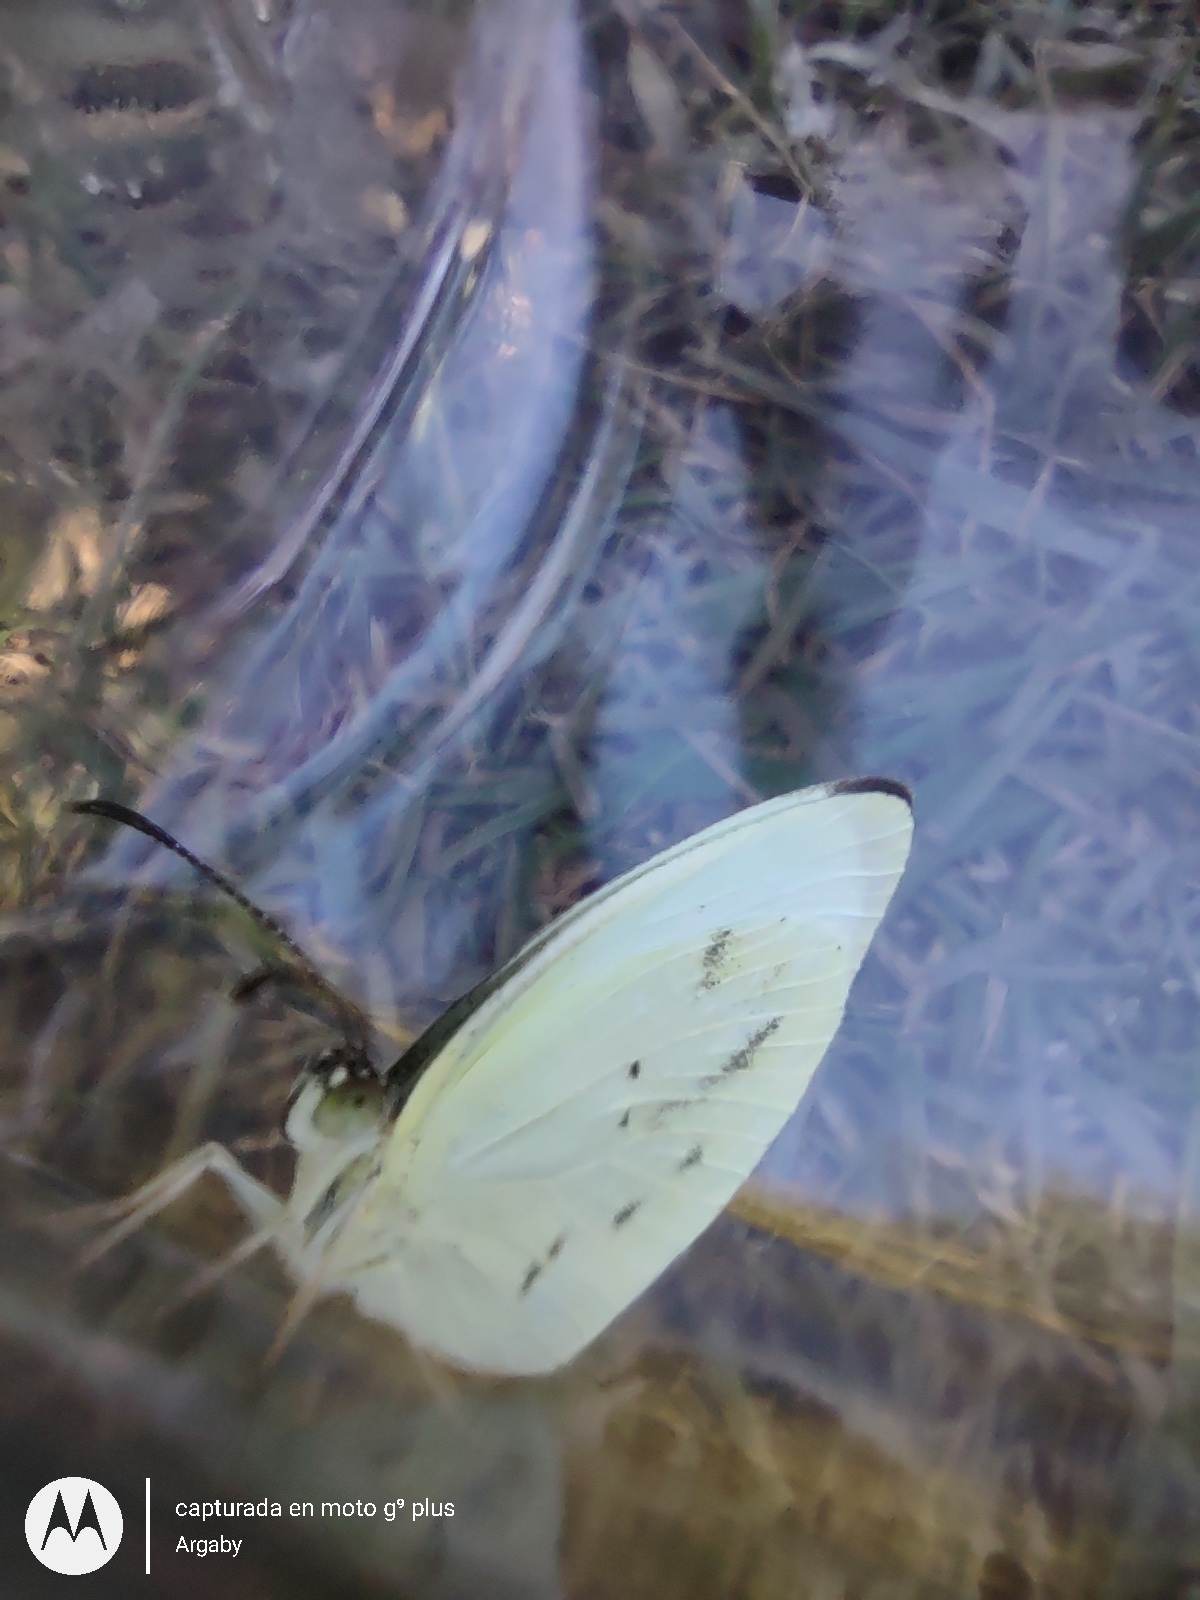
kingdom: Animalia
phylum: Arthropoda
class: Insecta
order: Lepidoptera
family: Pieridae
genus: Abaeis
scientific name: Abaeis albula
